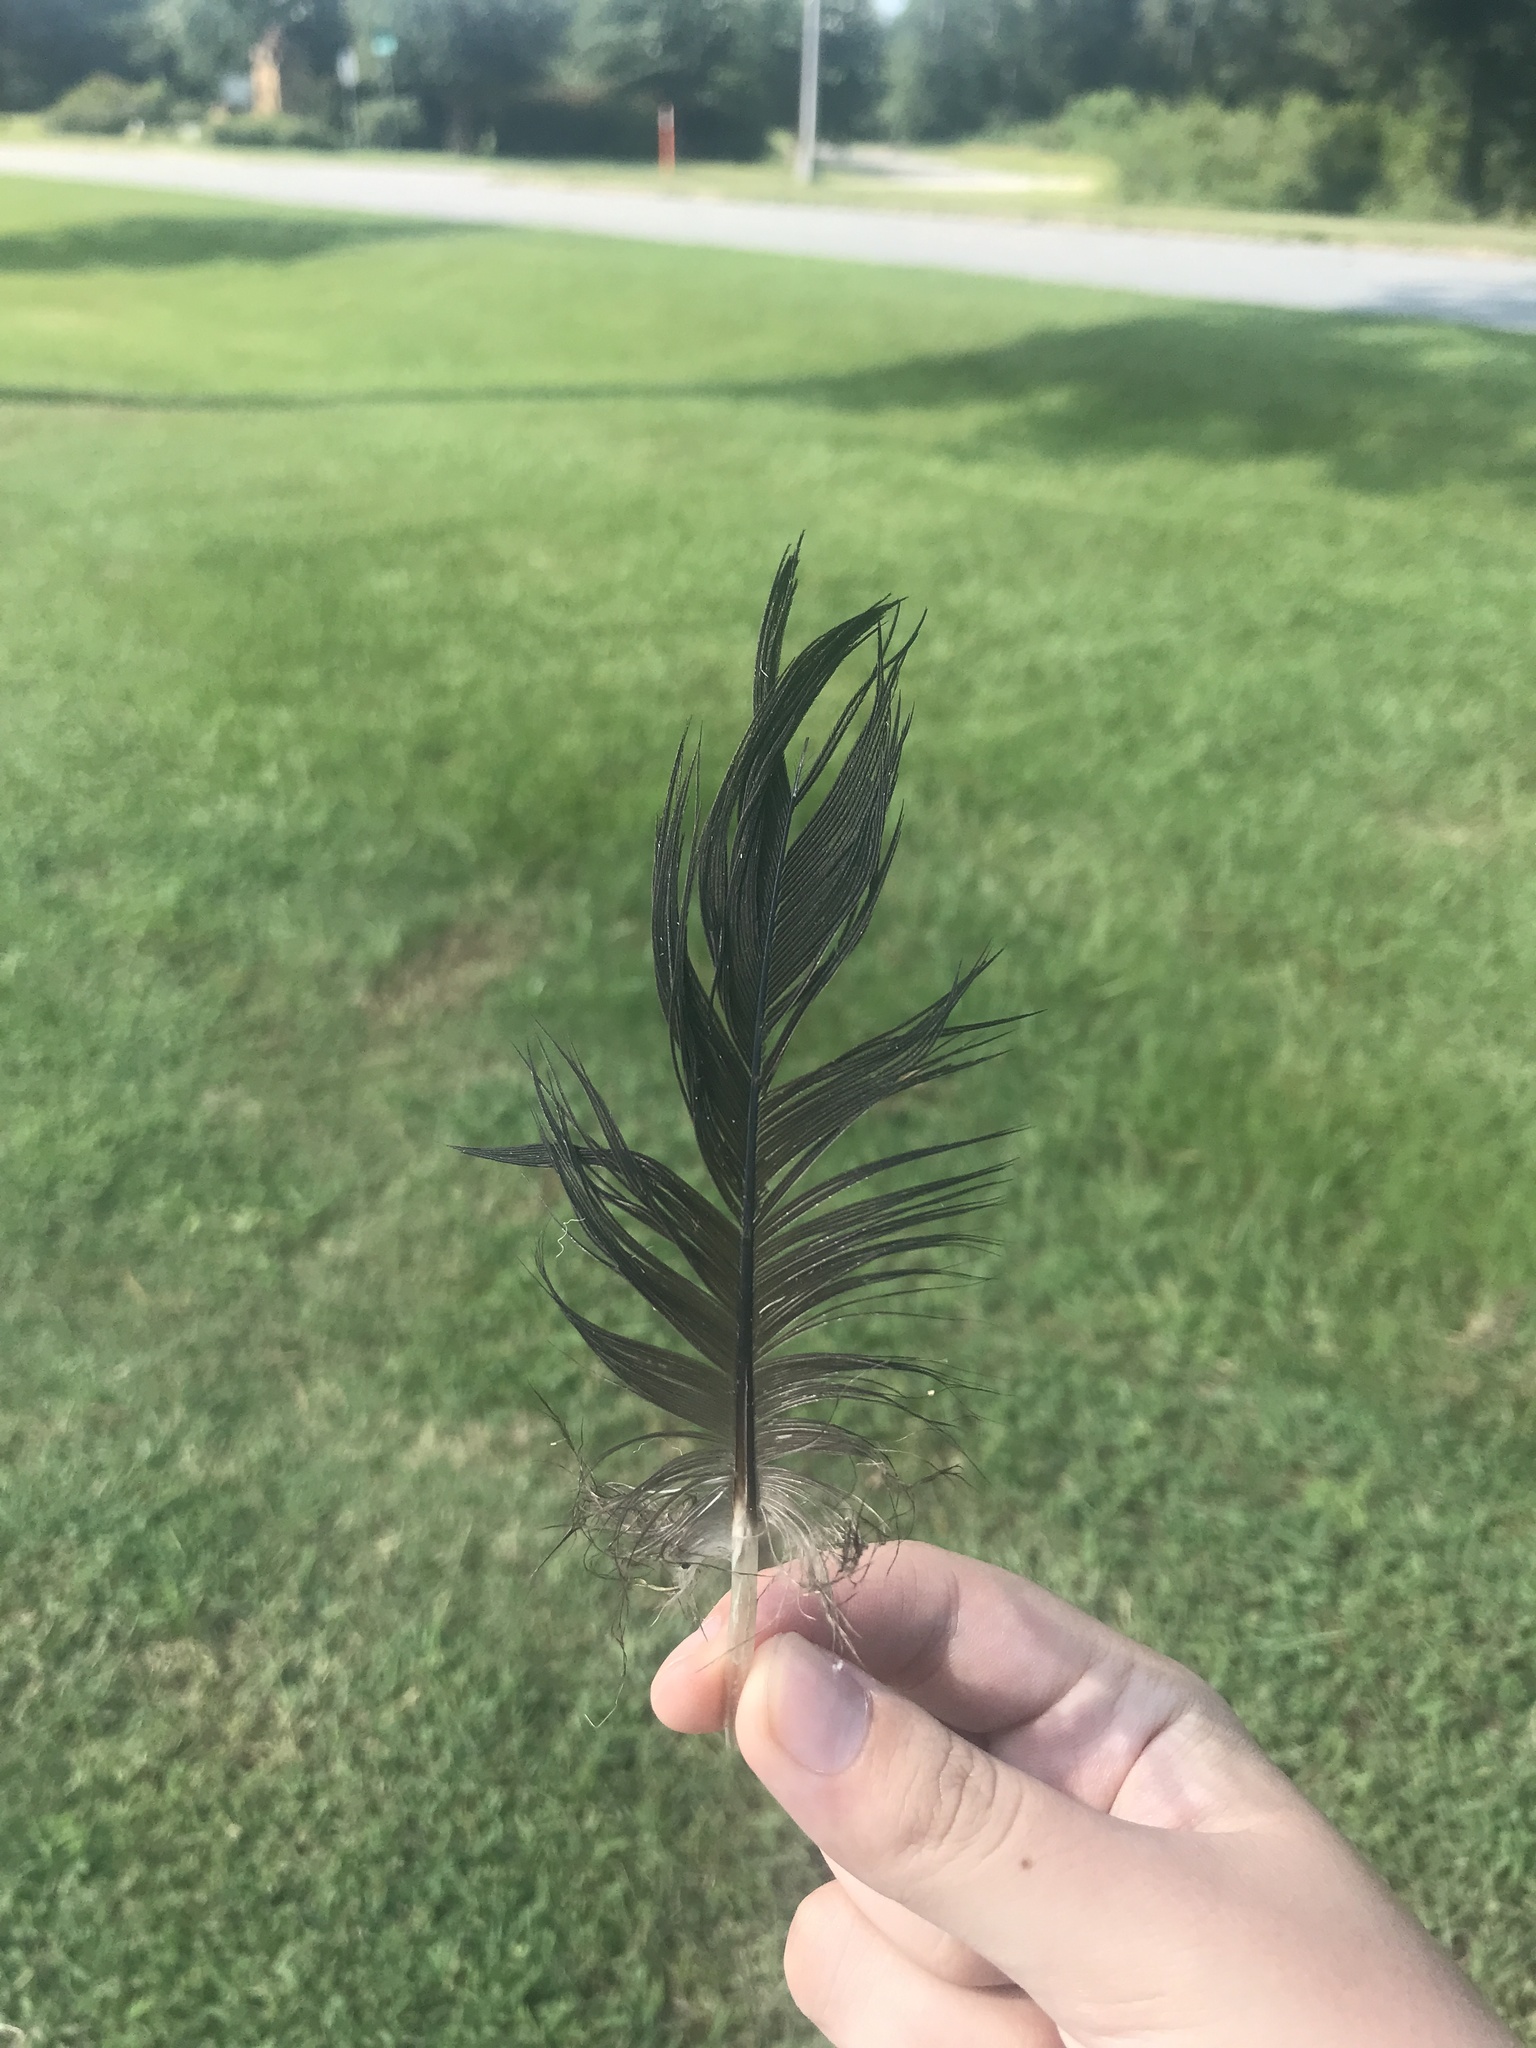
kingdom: Animalia
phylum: Chordata
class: Aves
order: Accipitriformes
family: Cathartidae
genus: Coragyps
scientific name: Coragyps atratus
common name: Black vulture
